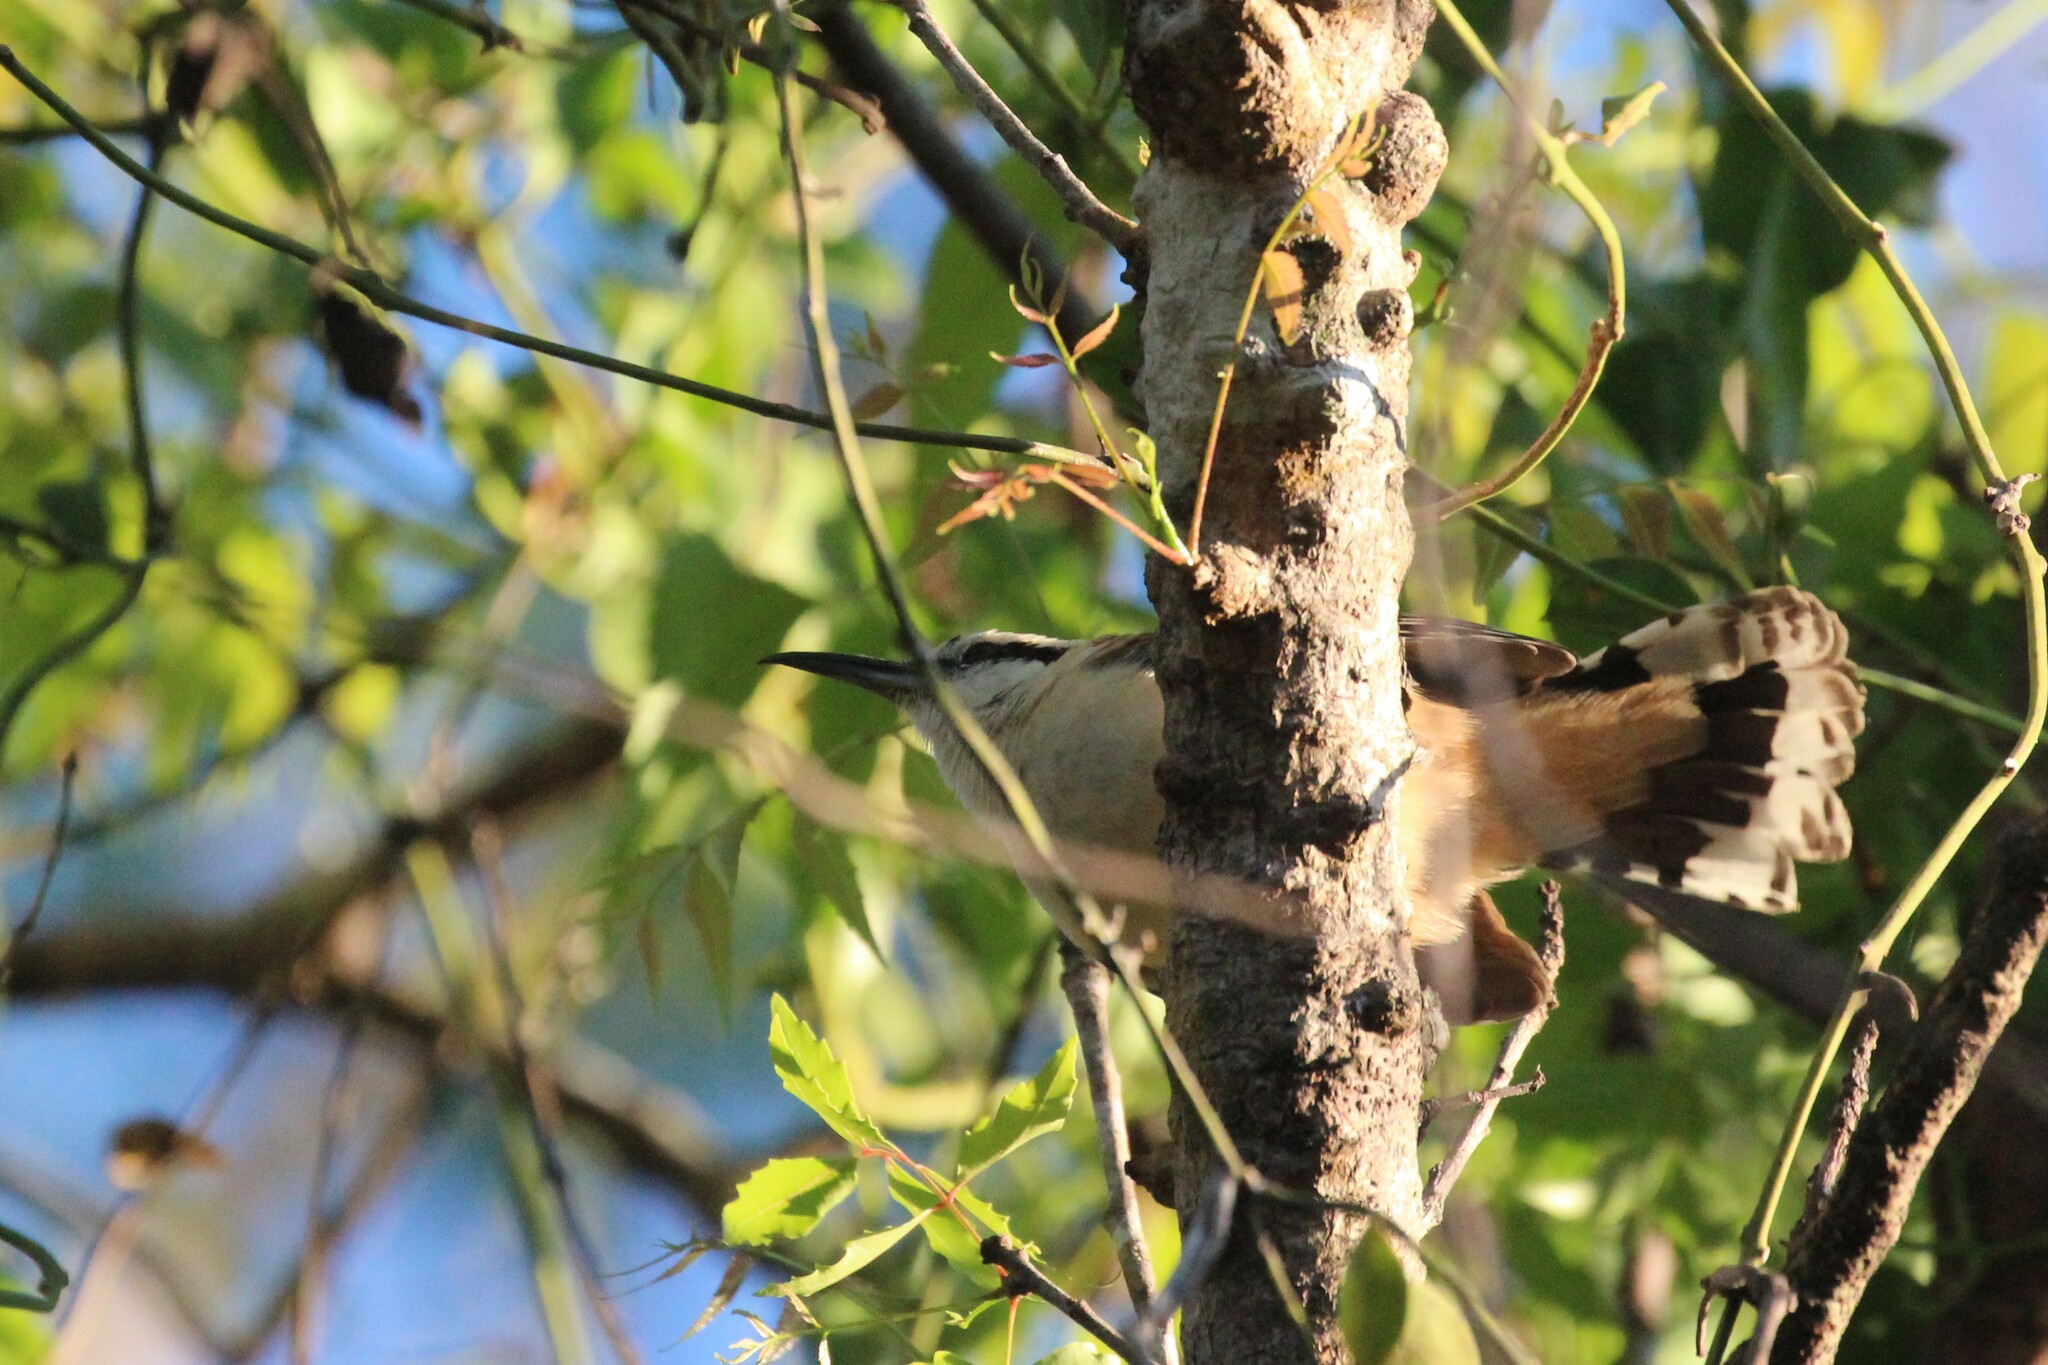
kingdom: Animalia
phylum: Chordata
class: Aves
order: Passeriformes
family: Troglodytidae
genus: Campylorhynchus
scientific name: Campylorhynchus rufinucha
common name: Rufous-naped wren
